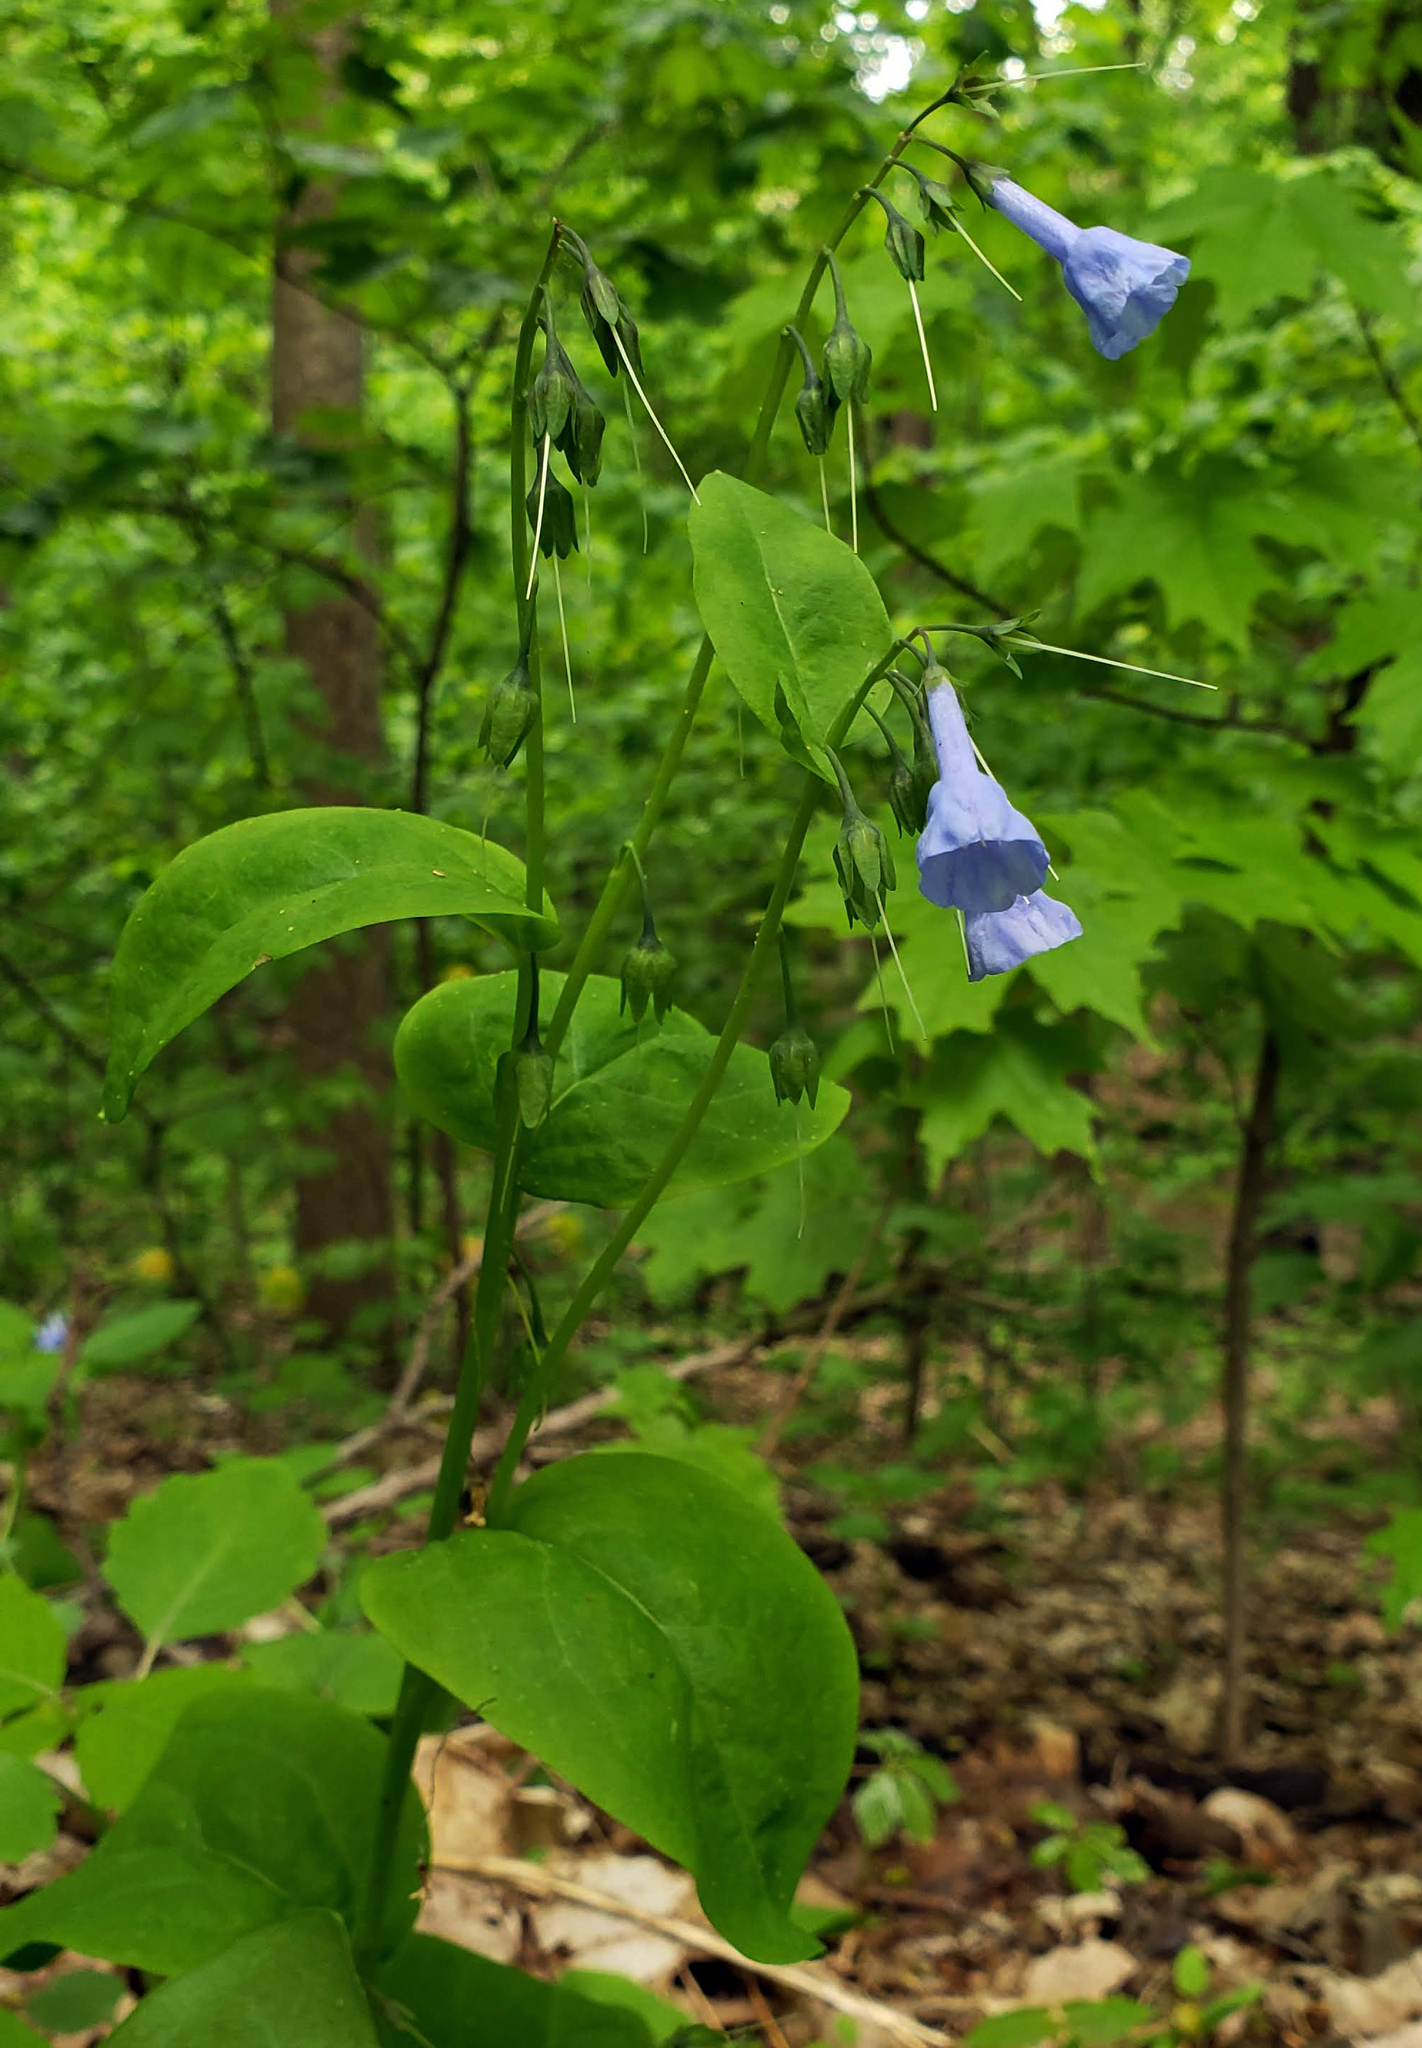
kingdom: Plantae
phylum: Tracheophyta
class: Magnoliopsida
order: Boraginales
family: Boraginaceae
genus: Mertensia
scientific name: Mertensia virginica
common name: Virginia bluebells
